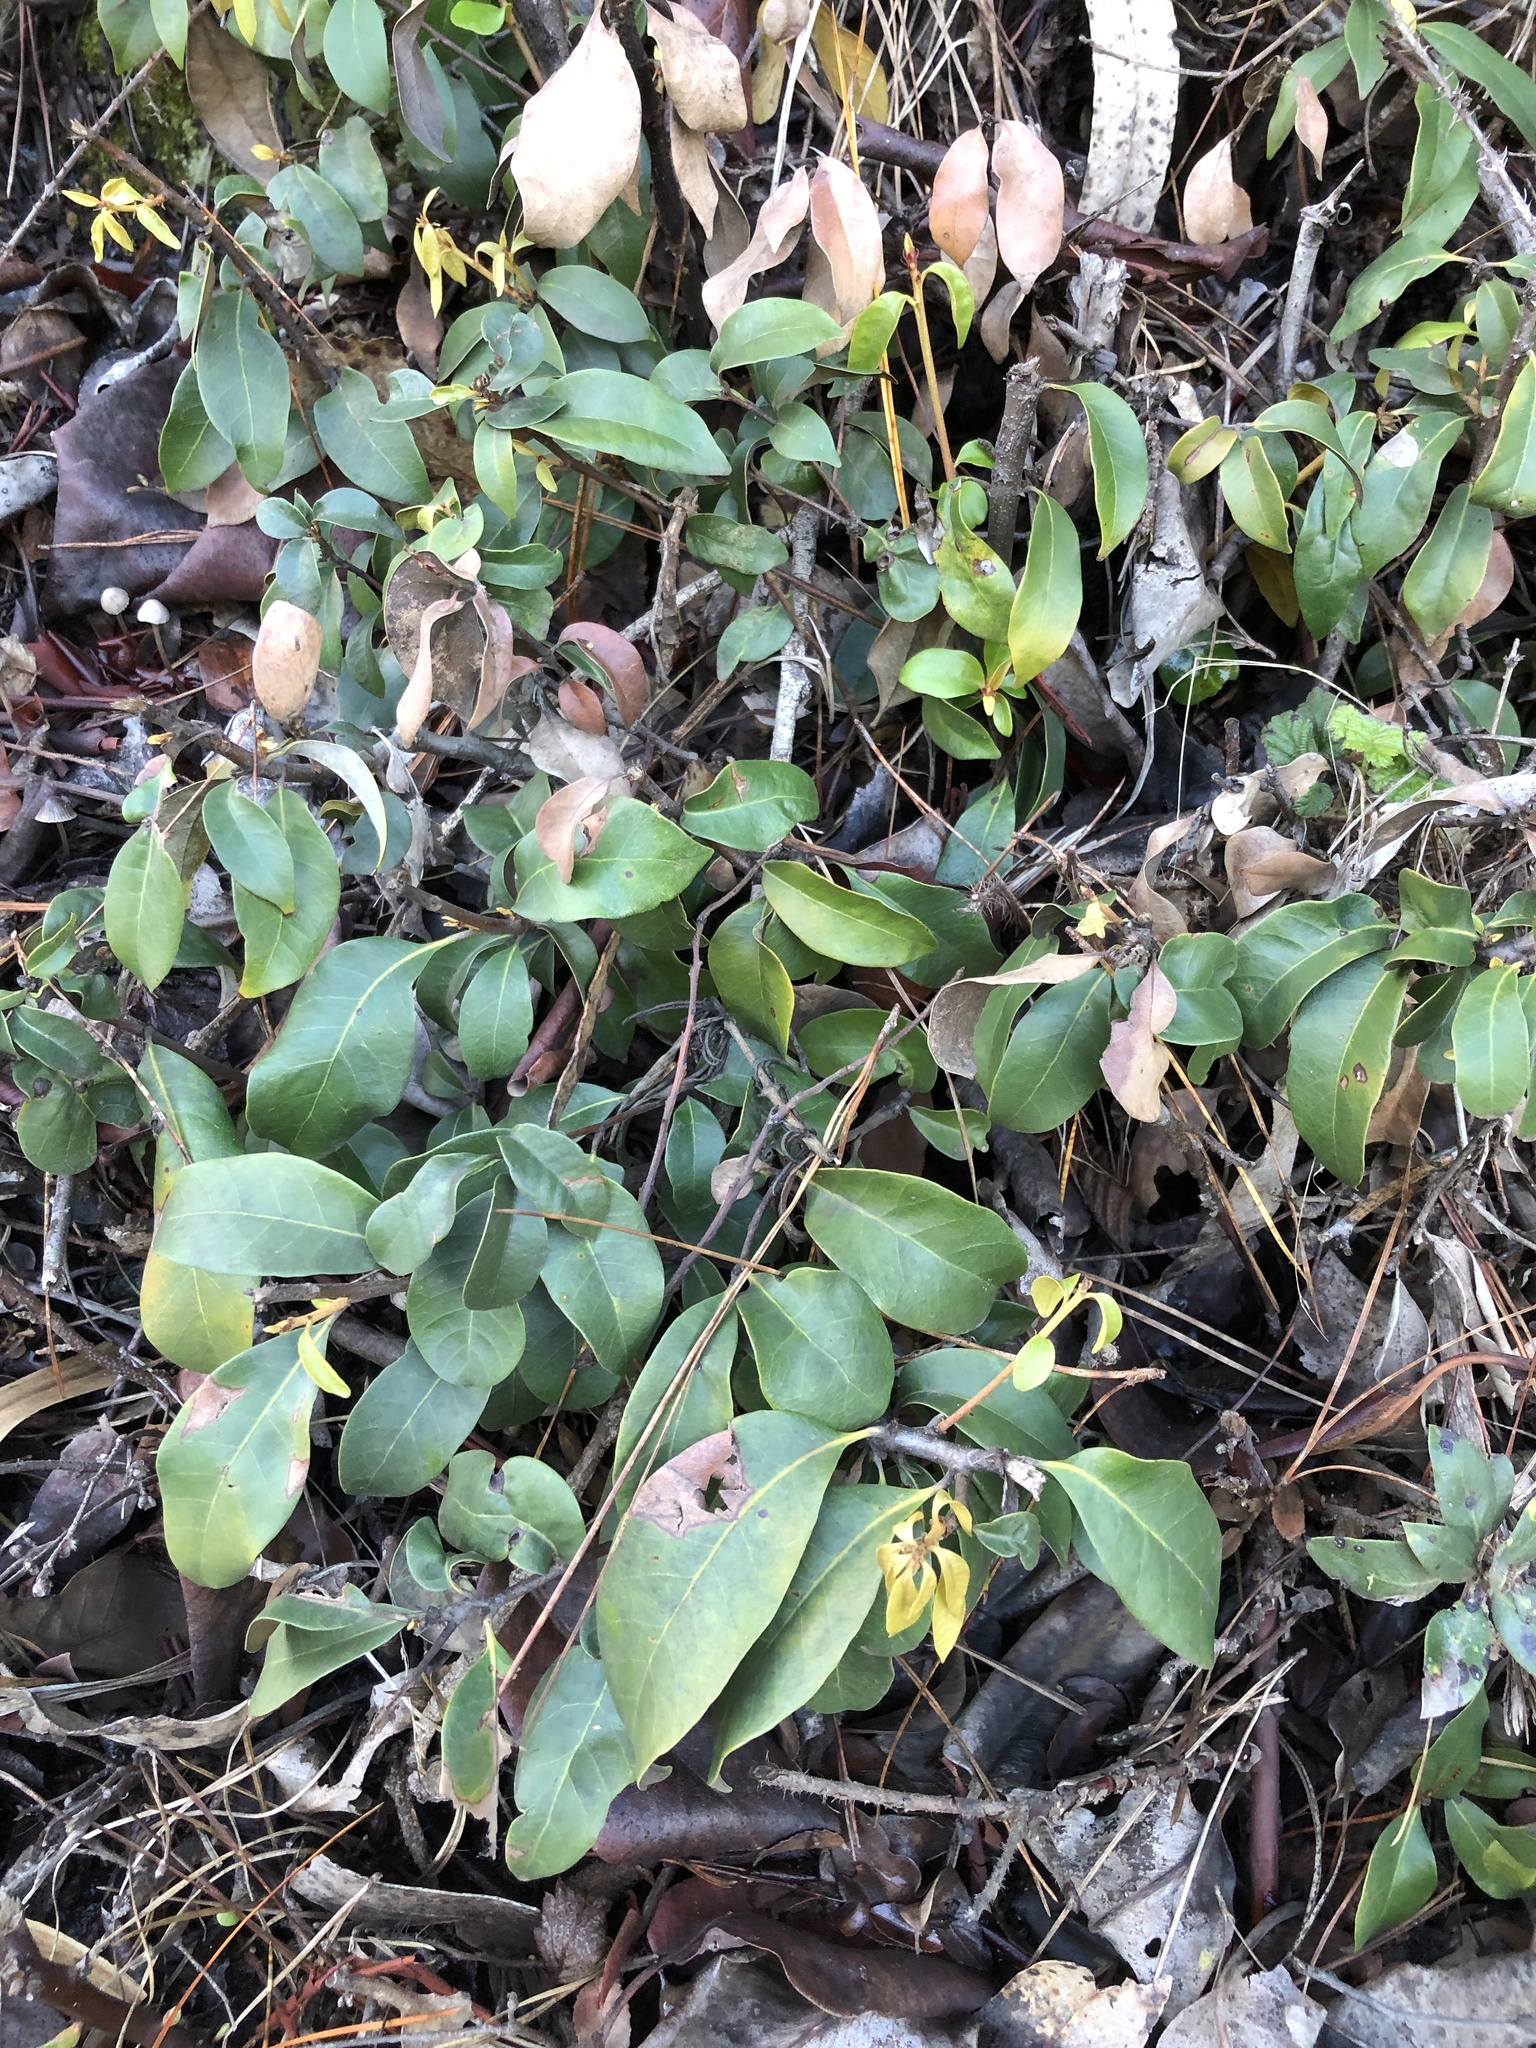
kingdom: Plantae
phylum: Tracheophyta
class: Magnoliopsida
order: Fagales
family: Fagaceae
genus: Chrysolepis
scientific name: Chrysolepis chrysophylla
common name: Giant chinquapin
